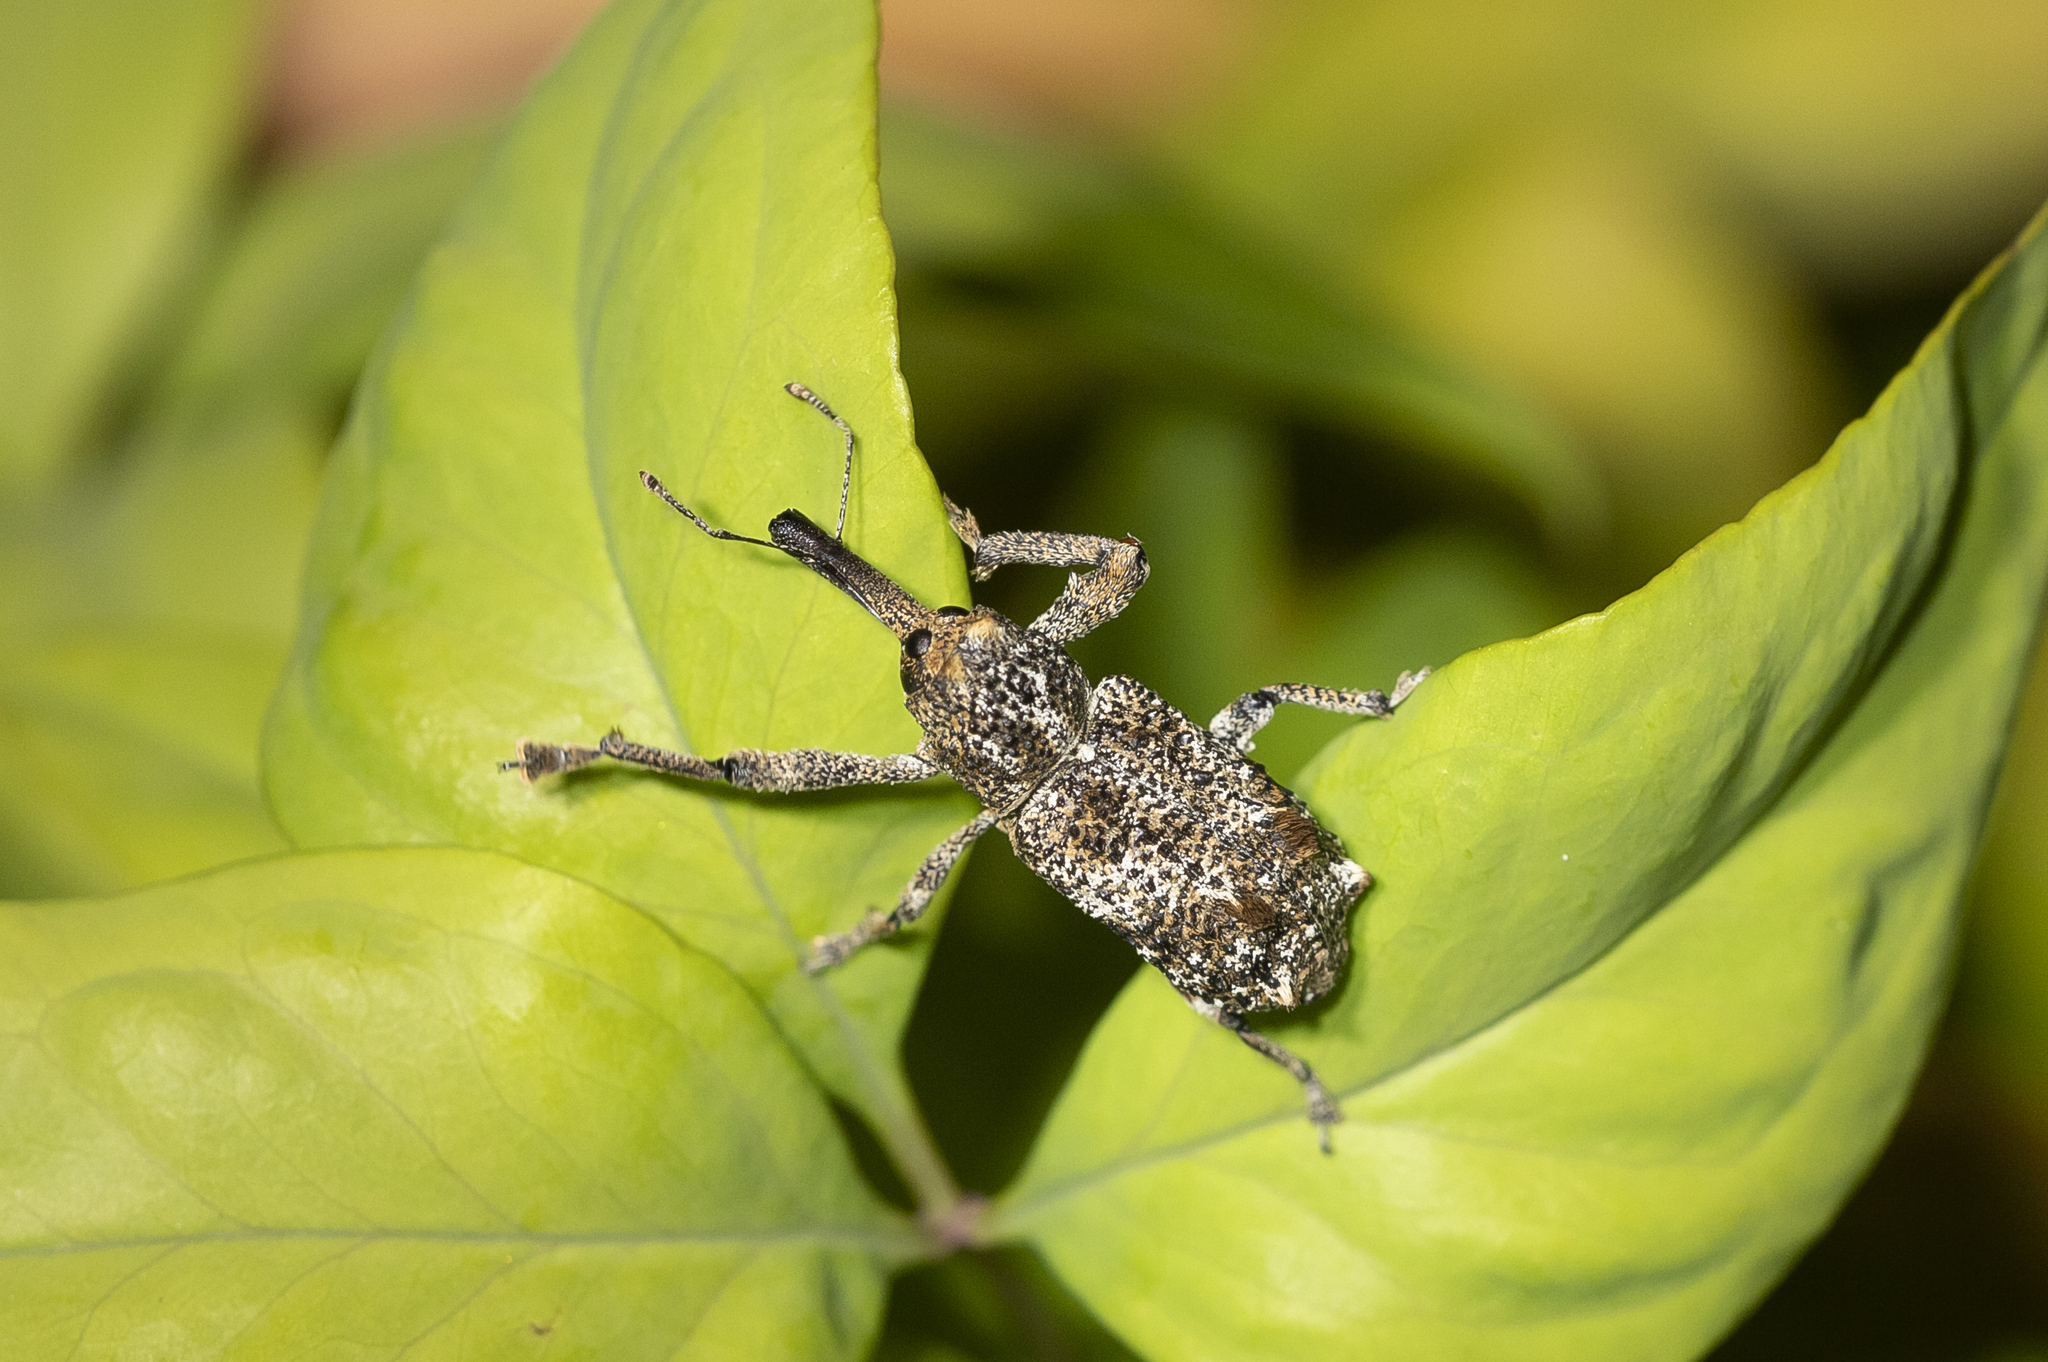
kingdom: Animalia
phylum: Arthropoda
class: Insecta
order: Coleoptera
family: Curculionidae
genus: Orthorhinus
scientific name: Orthorhinus cylindrirostris
